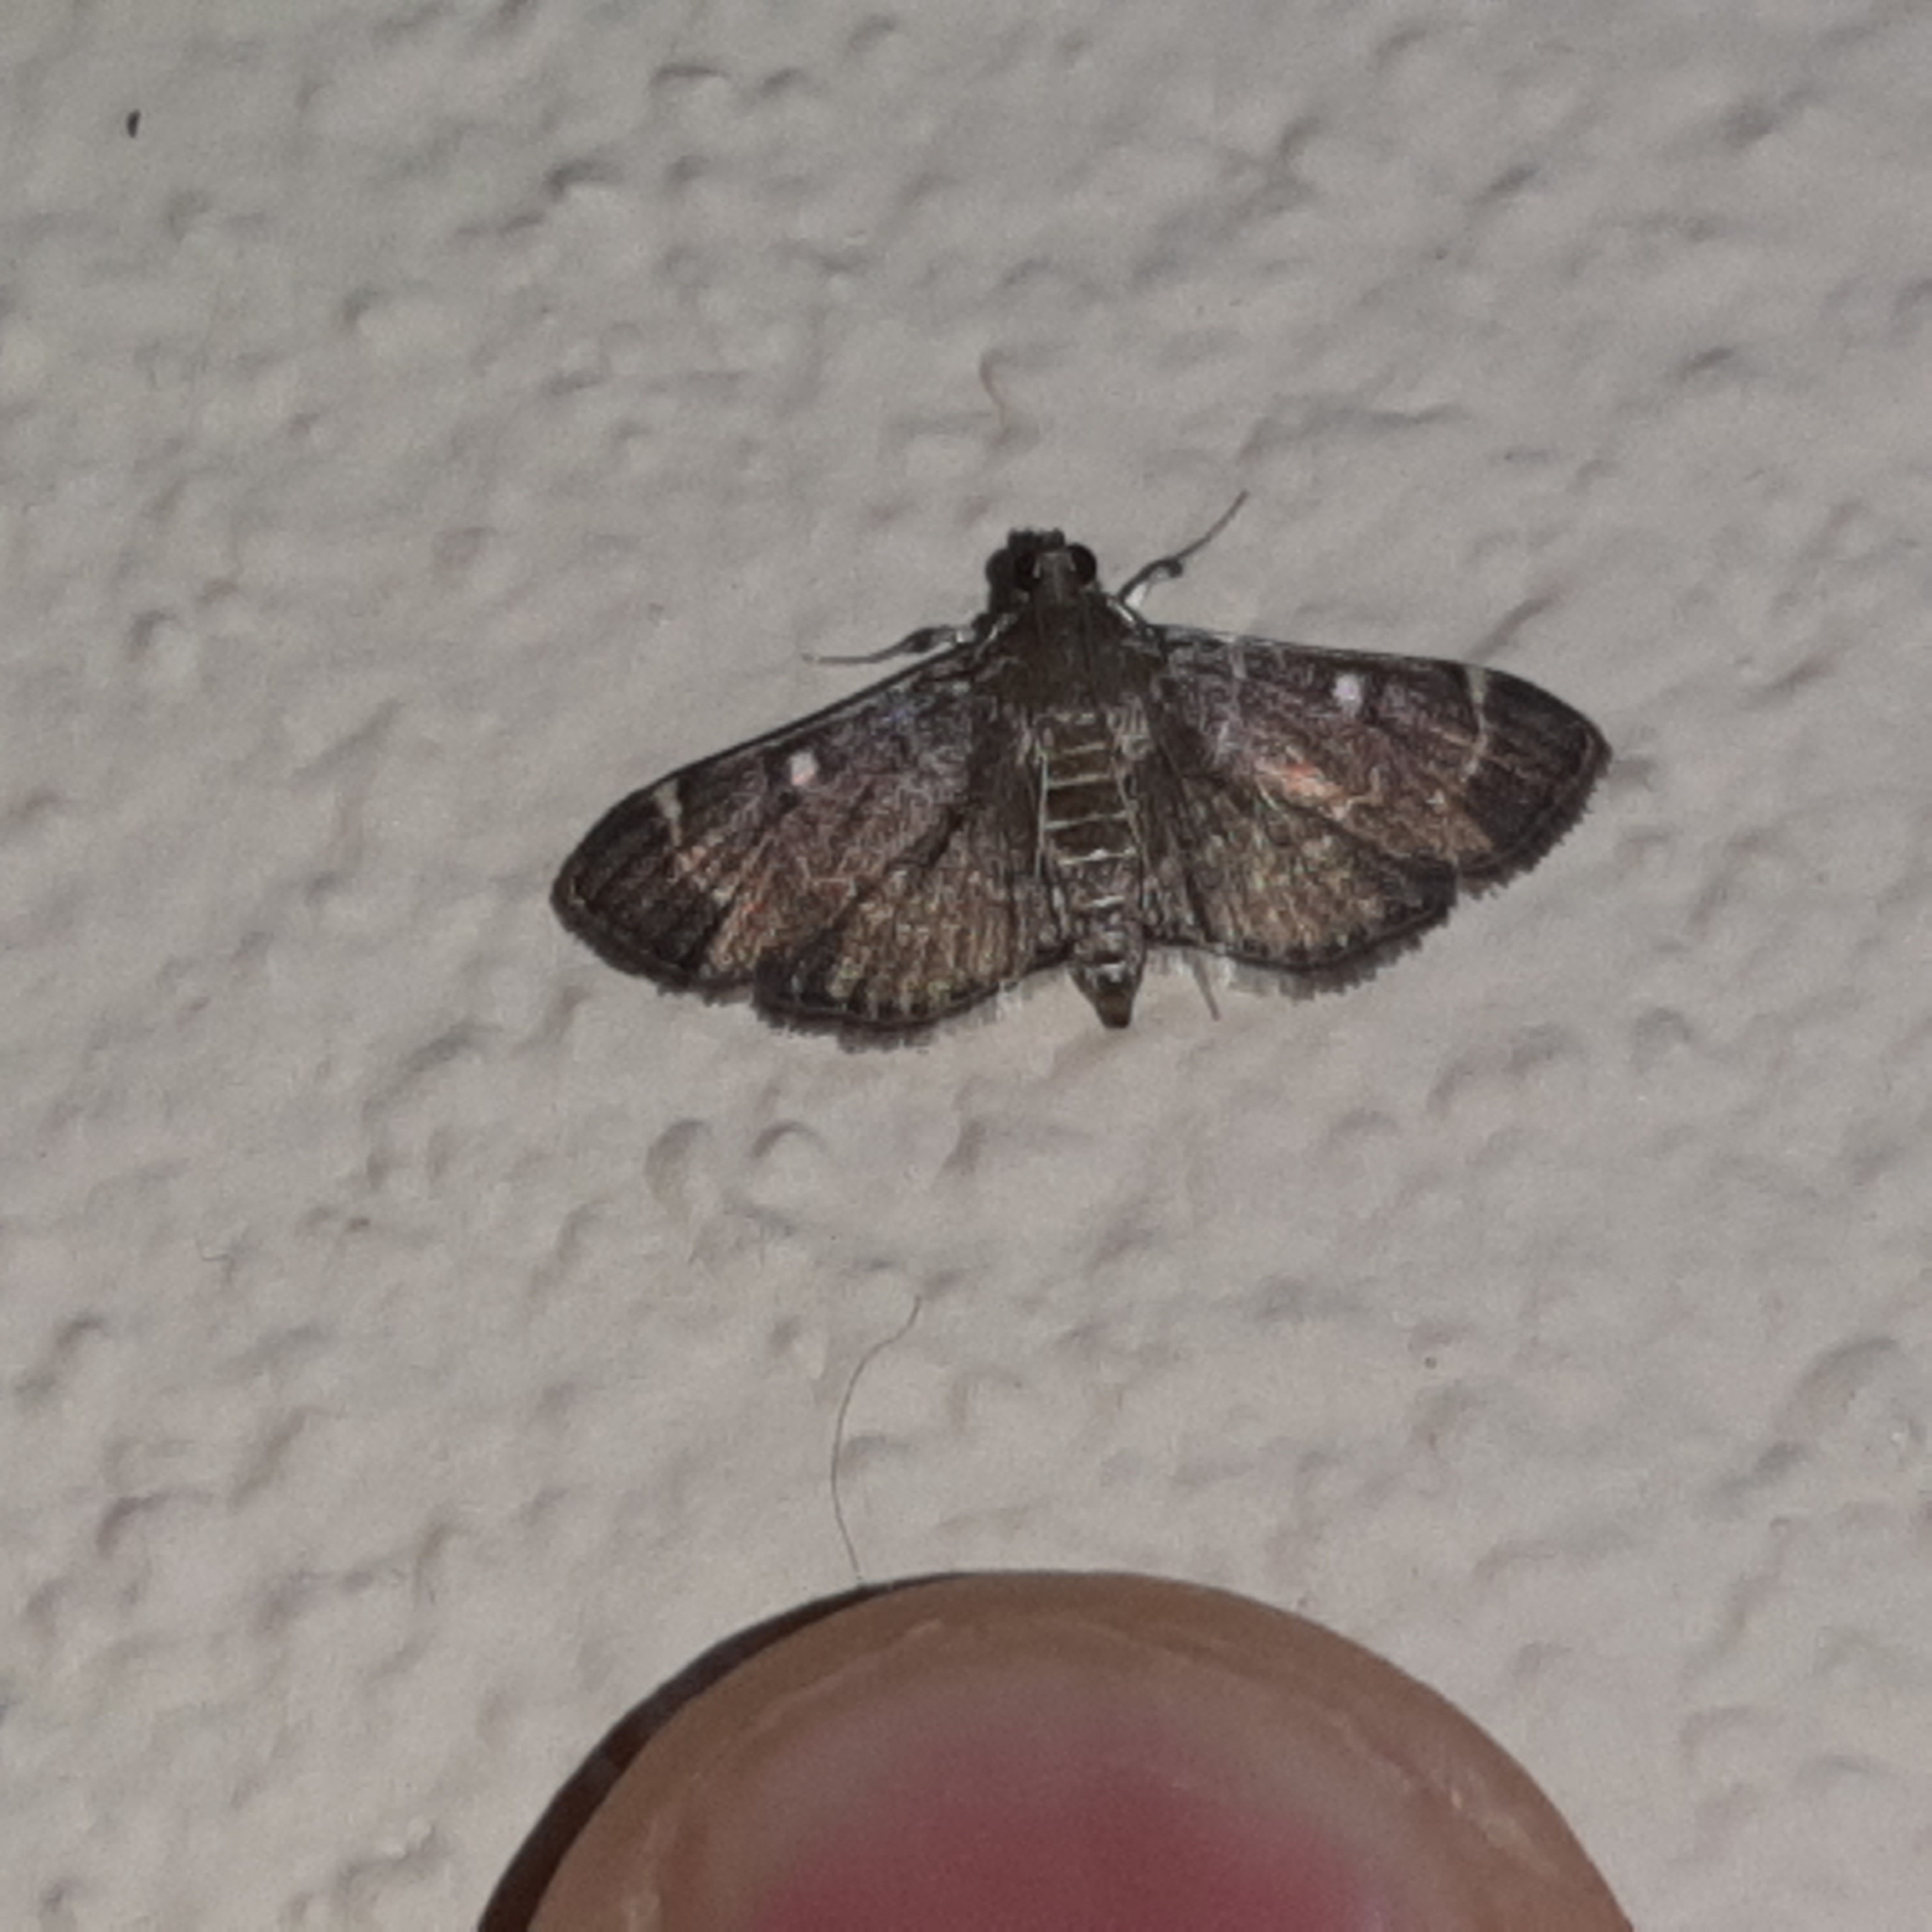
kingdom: Animalia
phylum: Arthropoda
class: Insecta
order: Lepidoptera
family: Crambidae
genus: Cryptobotys
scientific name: Cryptobotys zoilusalis
